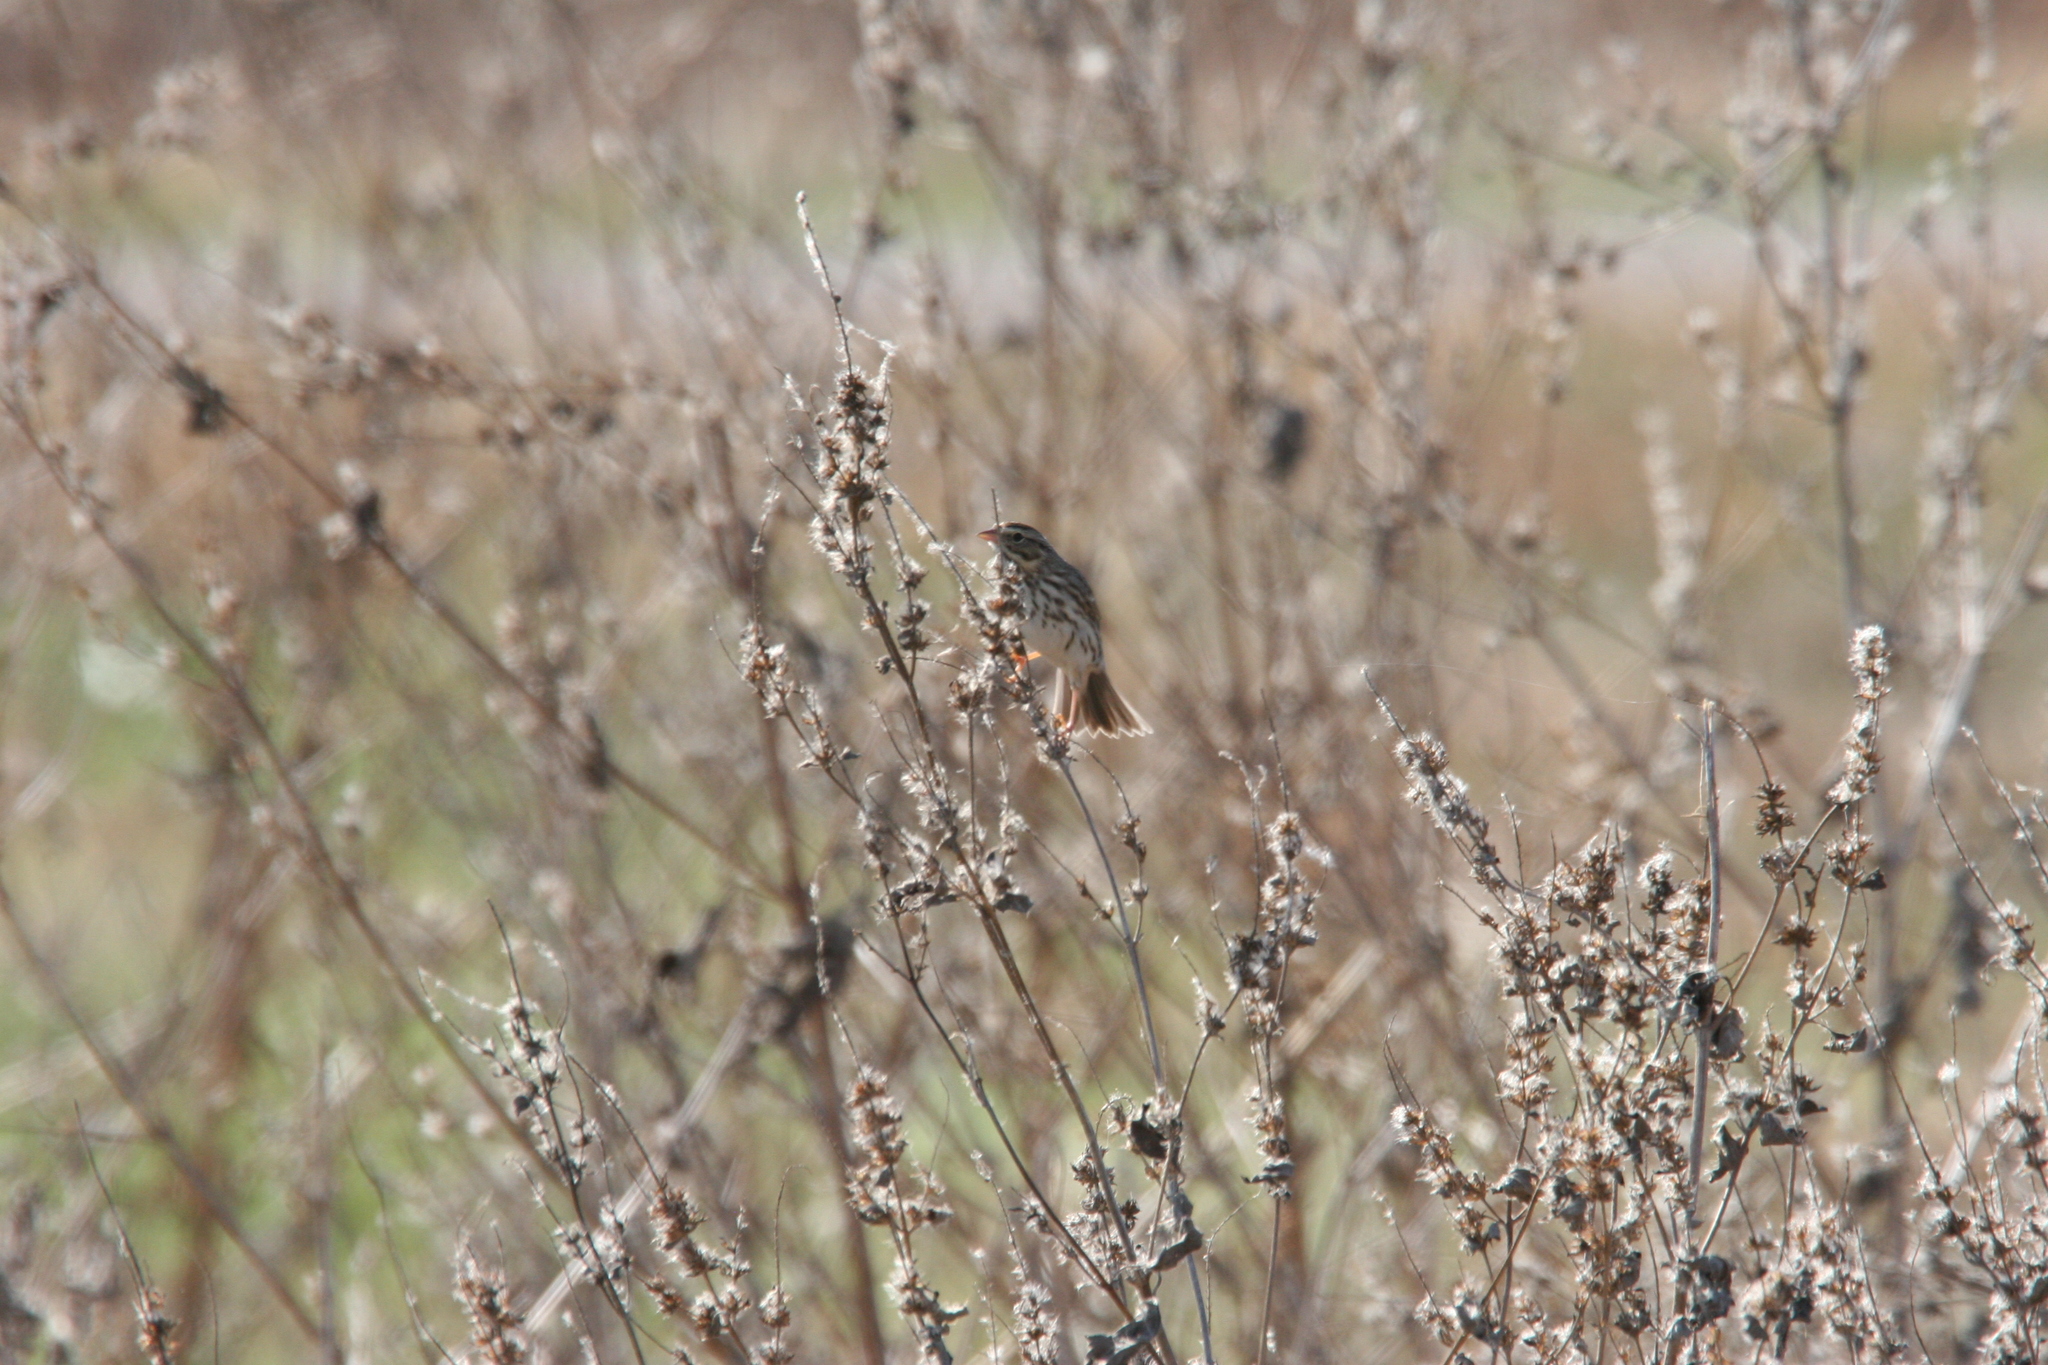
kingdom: Animalia
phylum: Chordata
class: Aves
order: Passeriformes
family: Passerellidae
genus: Passerculus
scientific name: Passerculus sandwichensis
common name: Savannah sparrow
